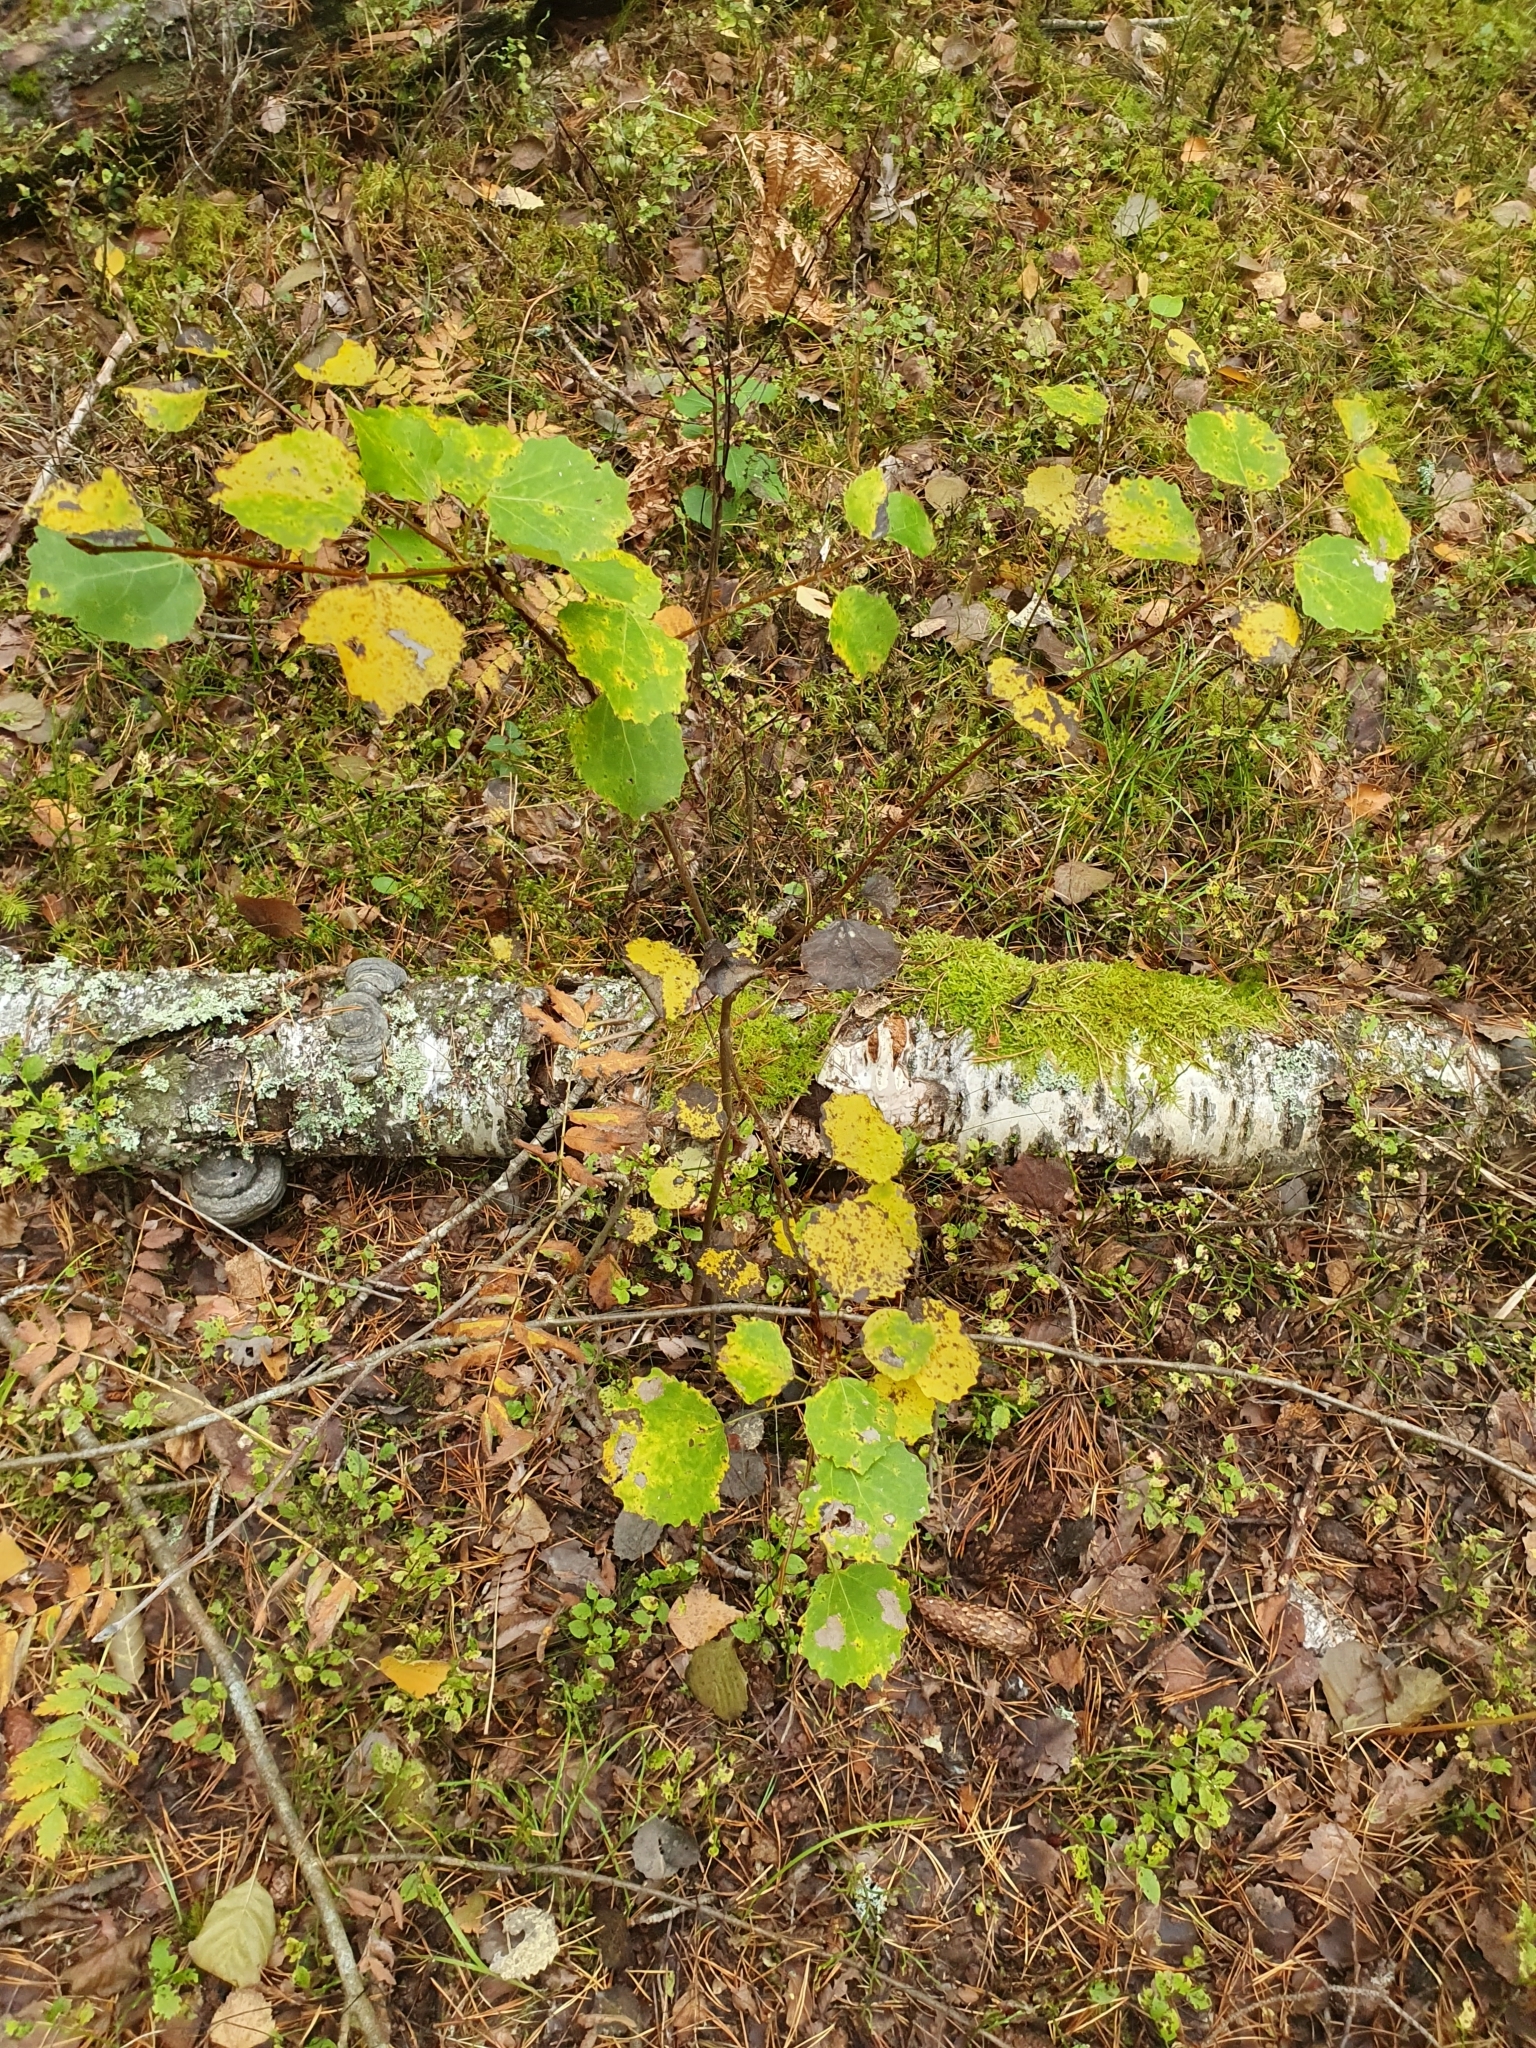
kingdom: Plantae
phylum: Tracheophyta
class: Magnoliopsida
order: Malpighiales
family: Salicaceae
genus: Populus
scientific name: Populus tremula
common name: European aspen
